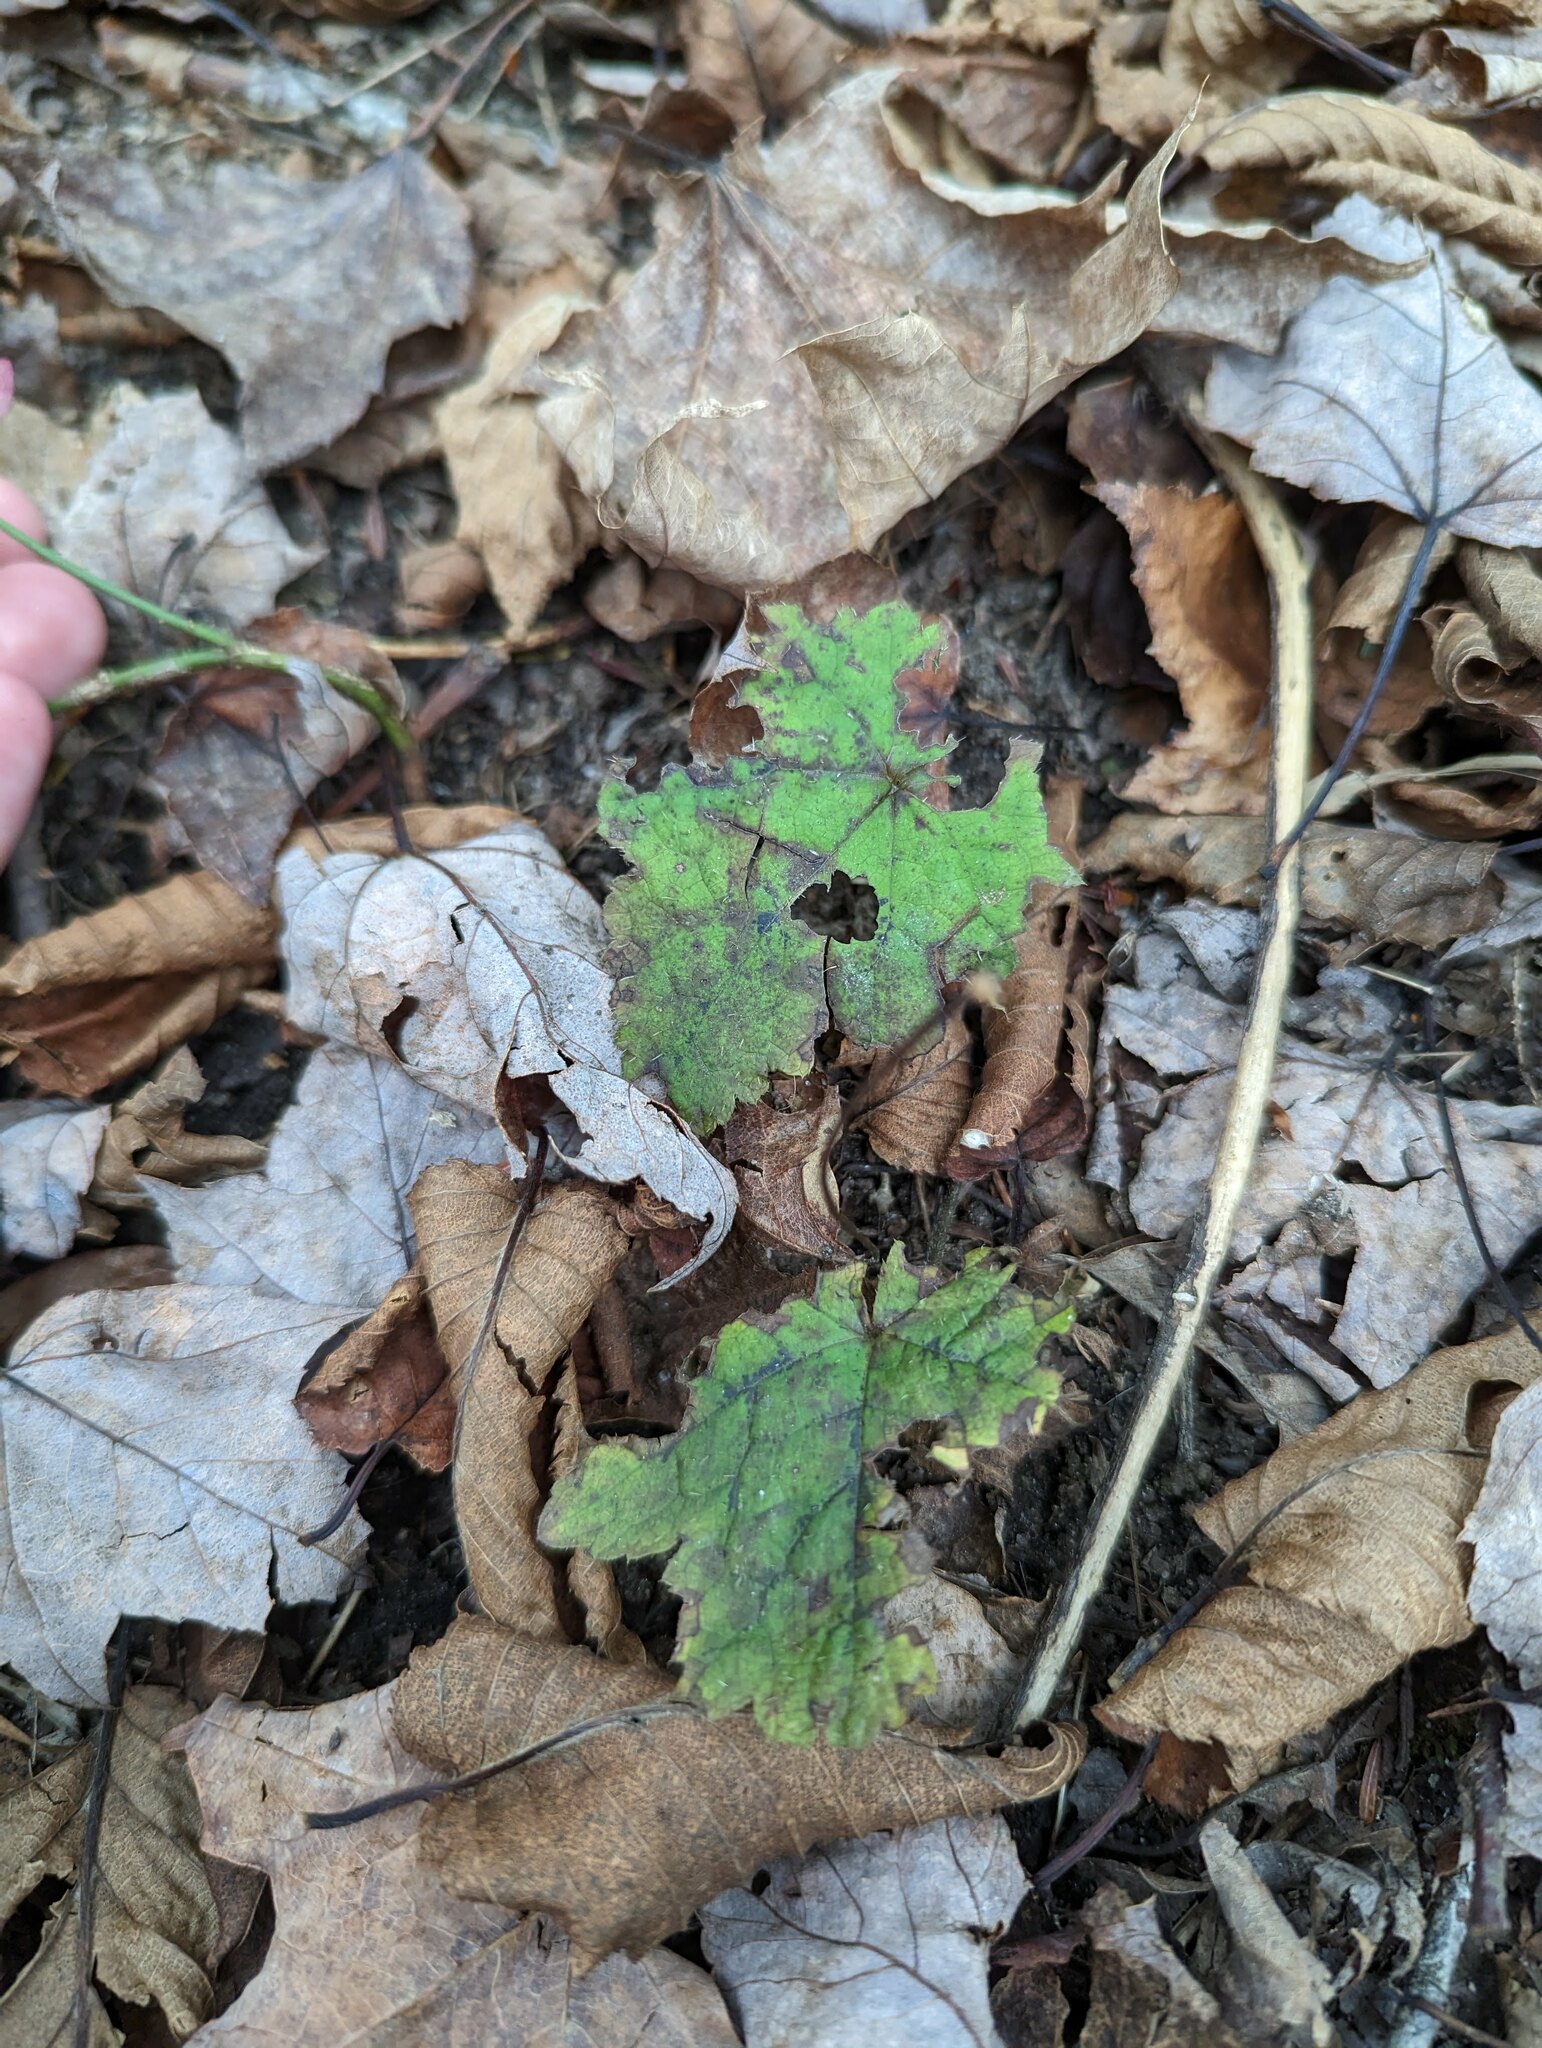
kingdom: Plantae
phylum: Tracheophyta
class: Magnoliopsida
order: Saxifragales
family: Saxifragaceae
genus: Tiarella
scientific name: Tiarella stolonifera
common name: Stoloniferous foamflower
